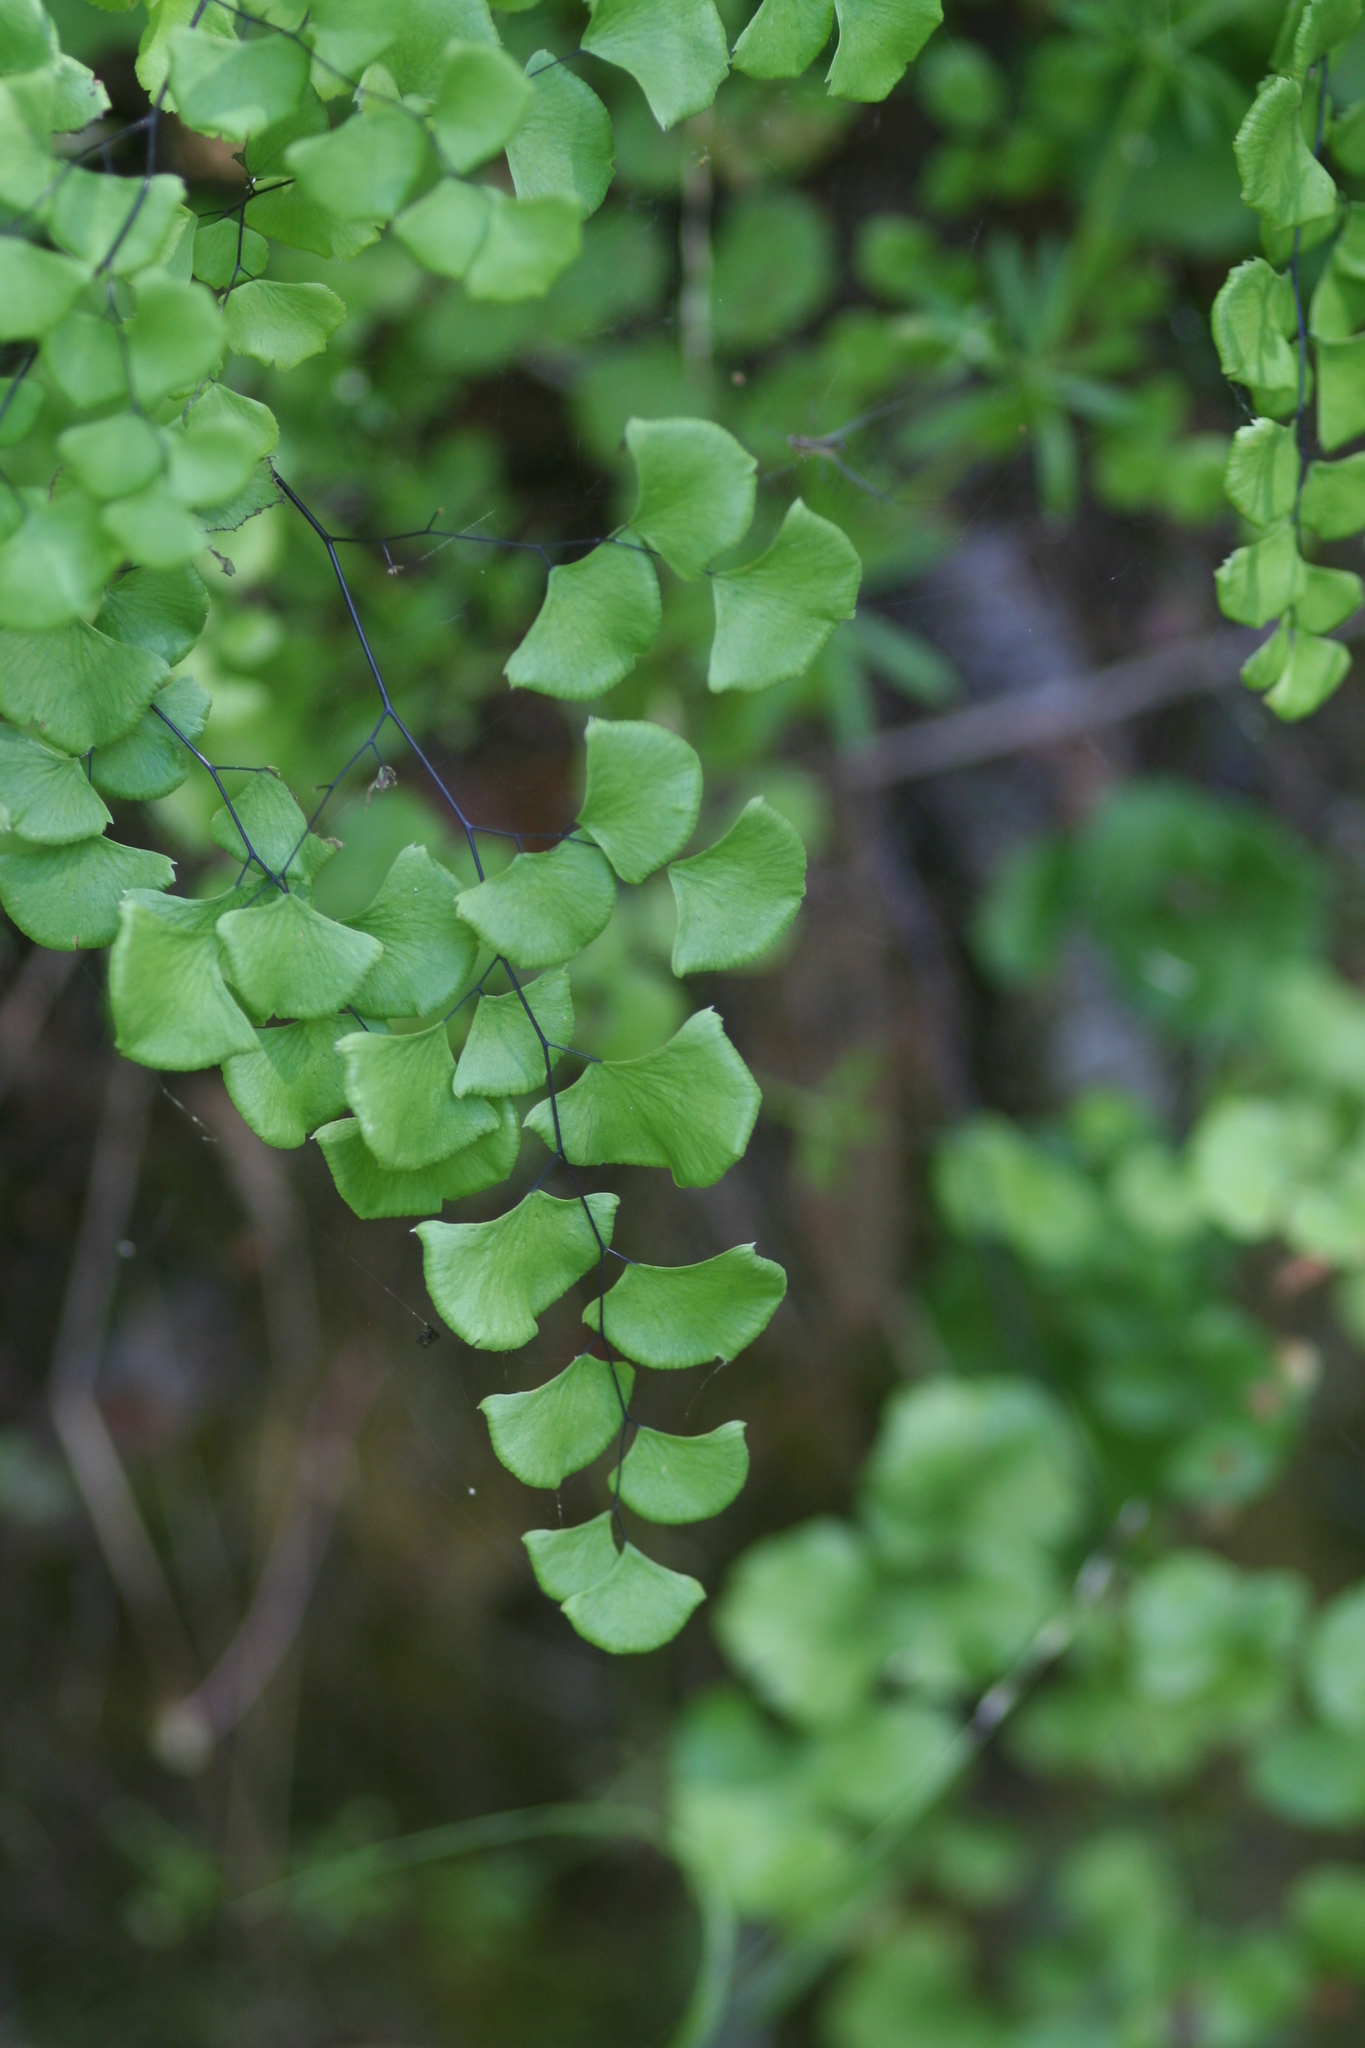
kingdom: Plantae
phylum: Tracheophyta
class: Polypodiopsida
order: Polypodiales
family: Pteridaceae
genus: Adiantum
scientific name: Adiantum jordanii
